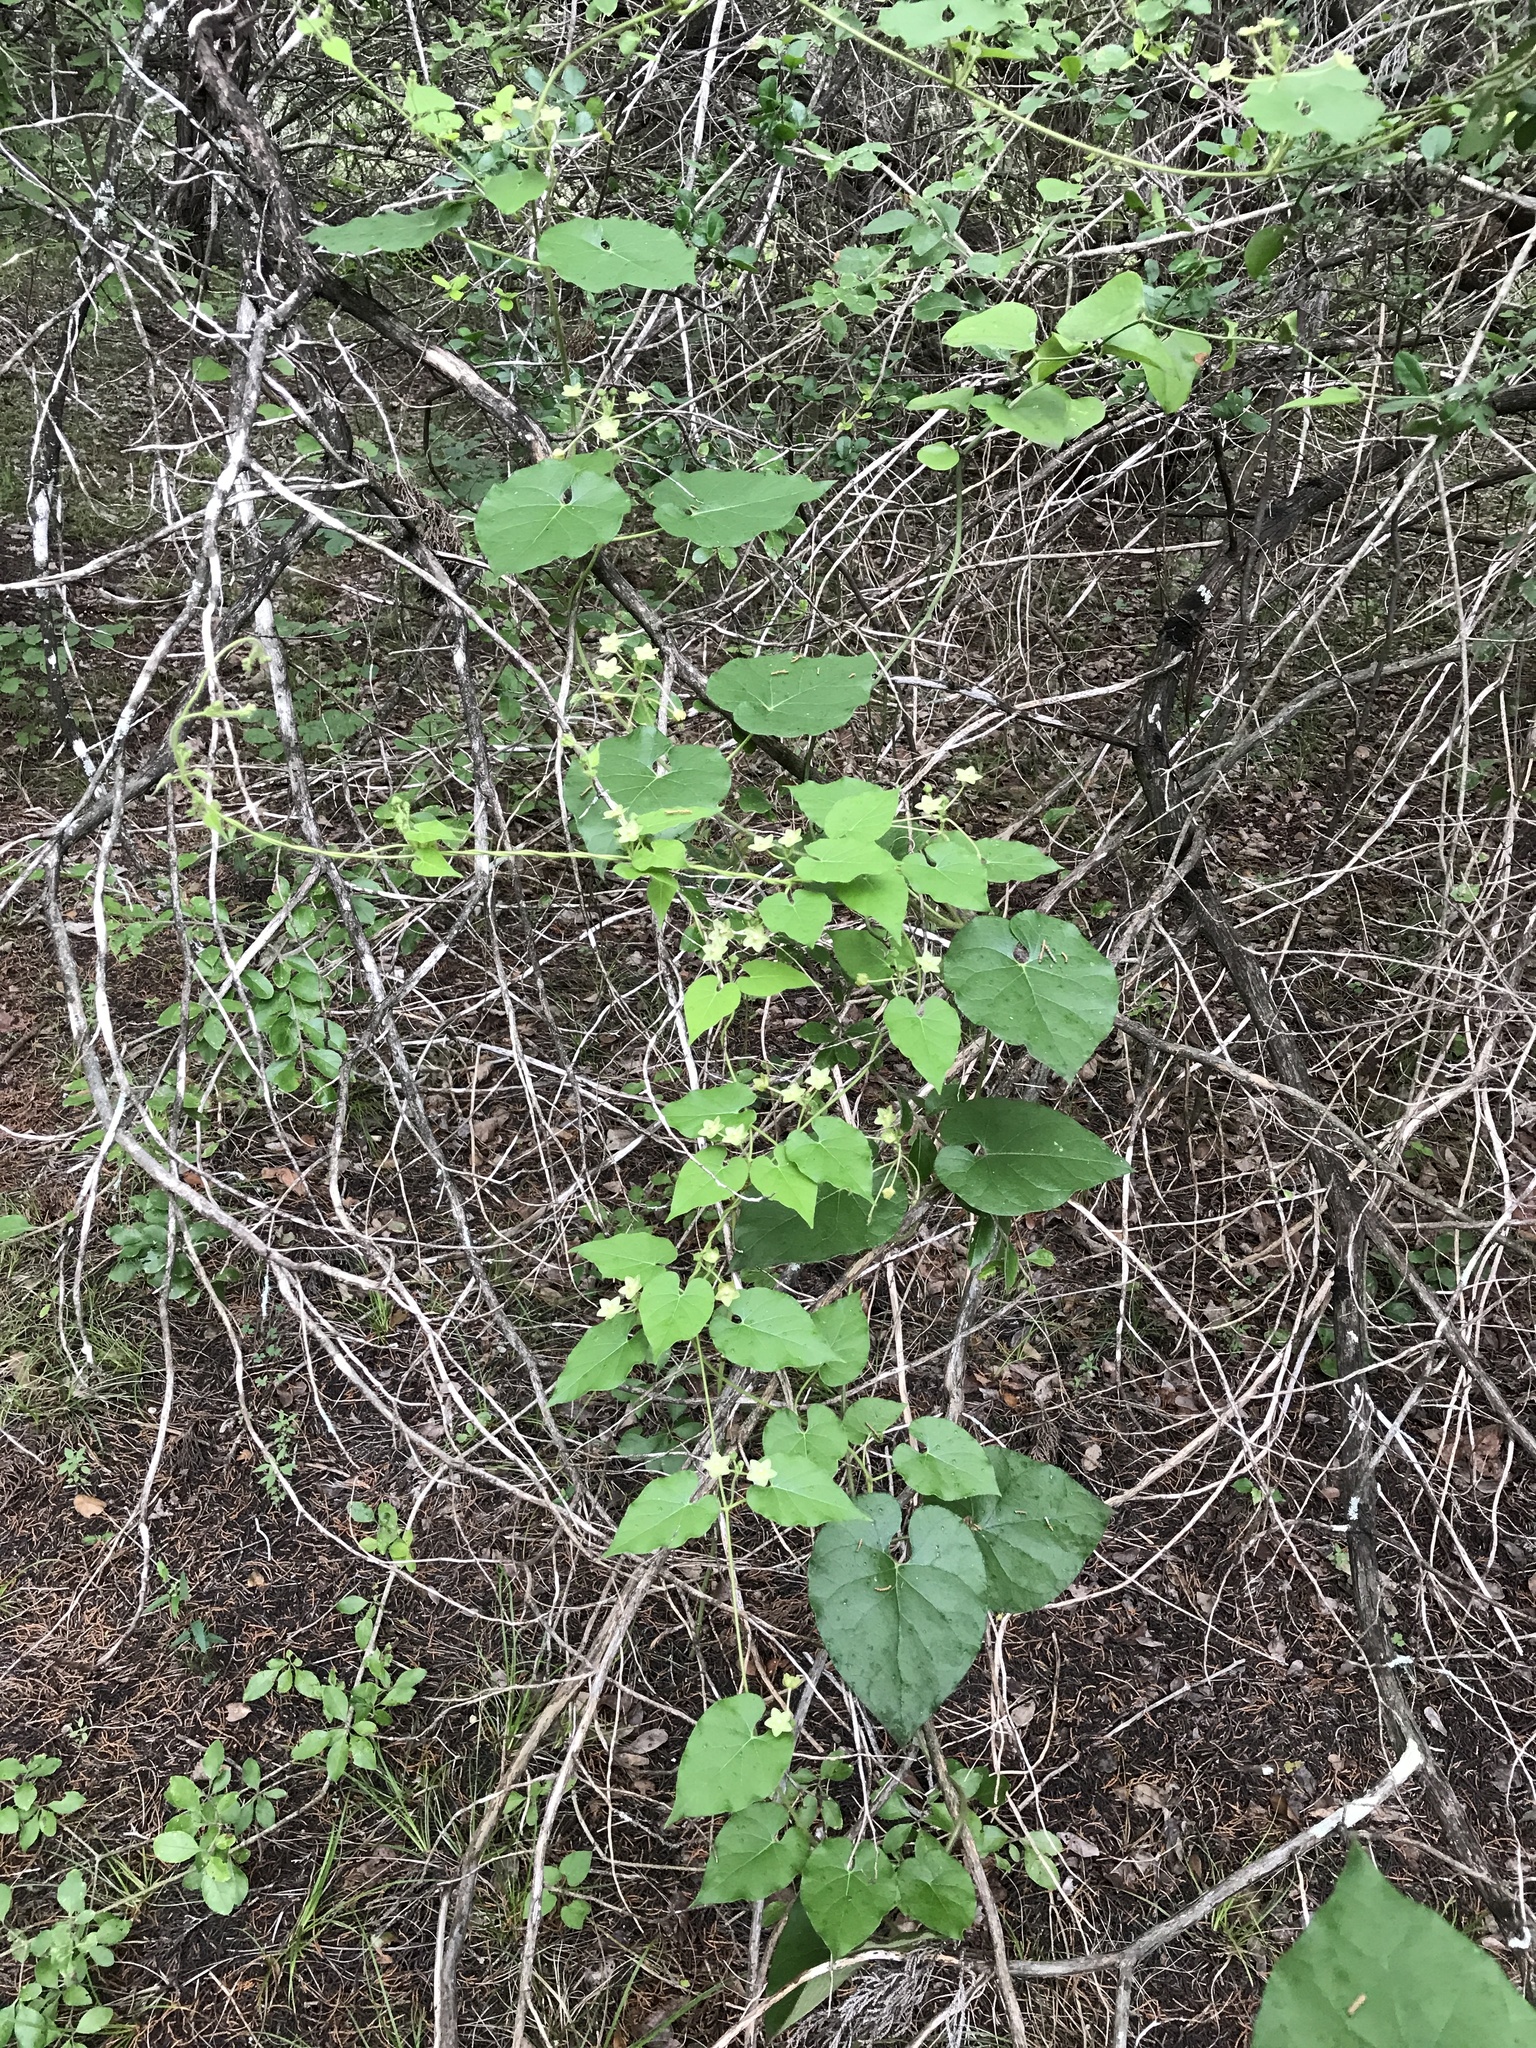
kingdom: Plantae
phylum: Tracheophyta
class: Magnoliopsida
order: Gentianales
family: Apocynaceae
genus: Dictyanthus
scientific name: Dictyanthus reticulatus
